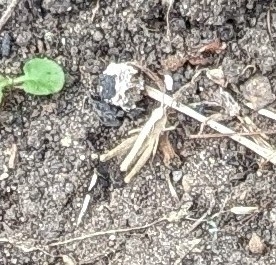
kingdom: Animalia
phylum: Arthropoda
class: Insecta
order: Orthoptera
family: Acrididae
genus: Chorthippus
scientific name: Chorthippus brunneus
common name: Field grasshopper
